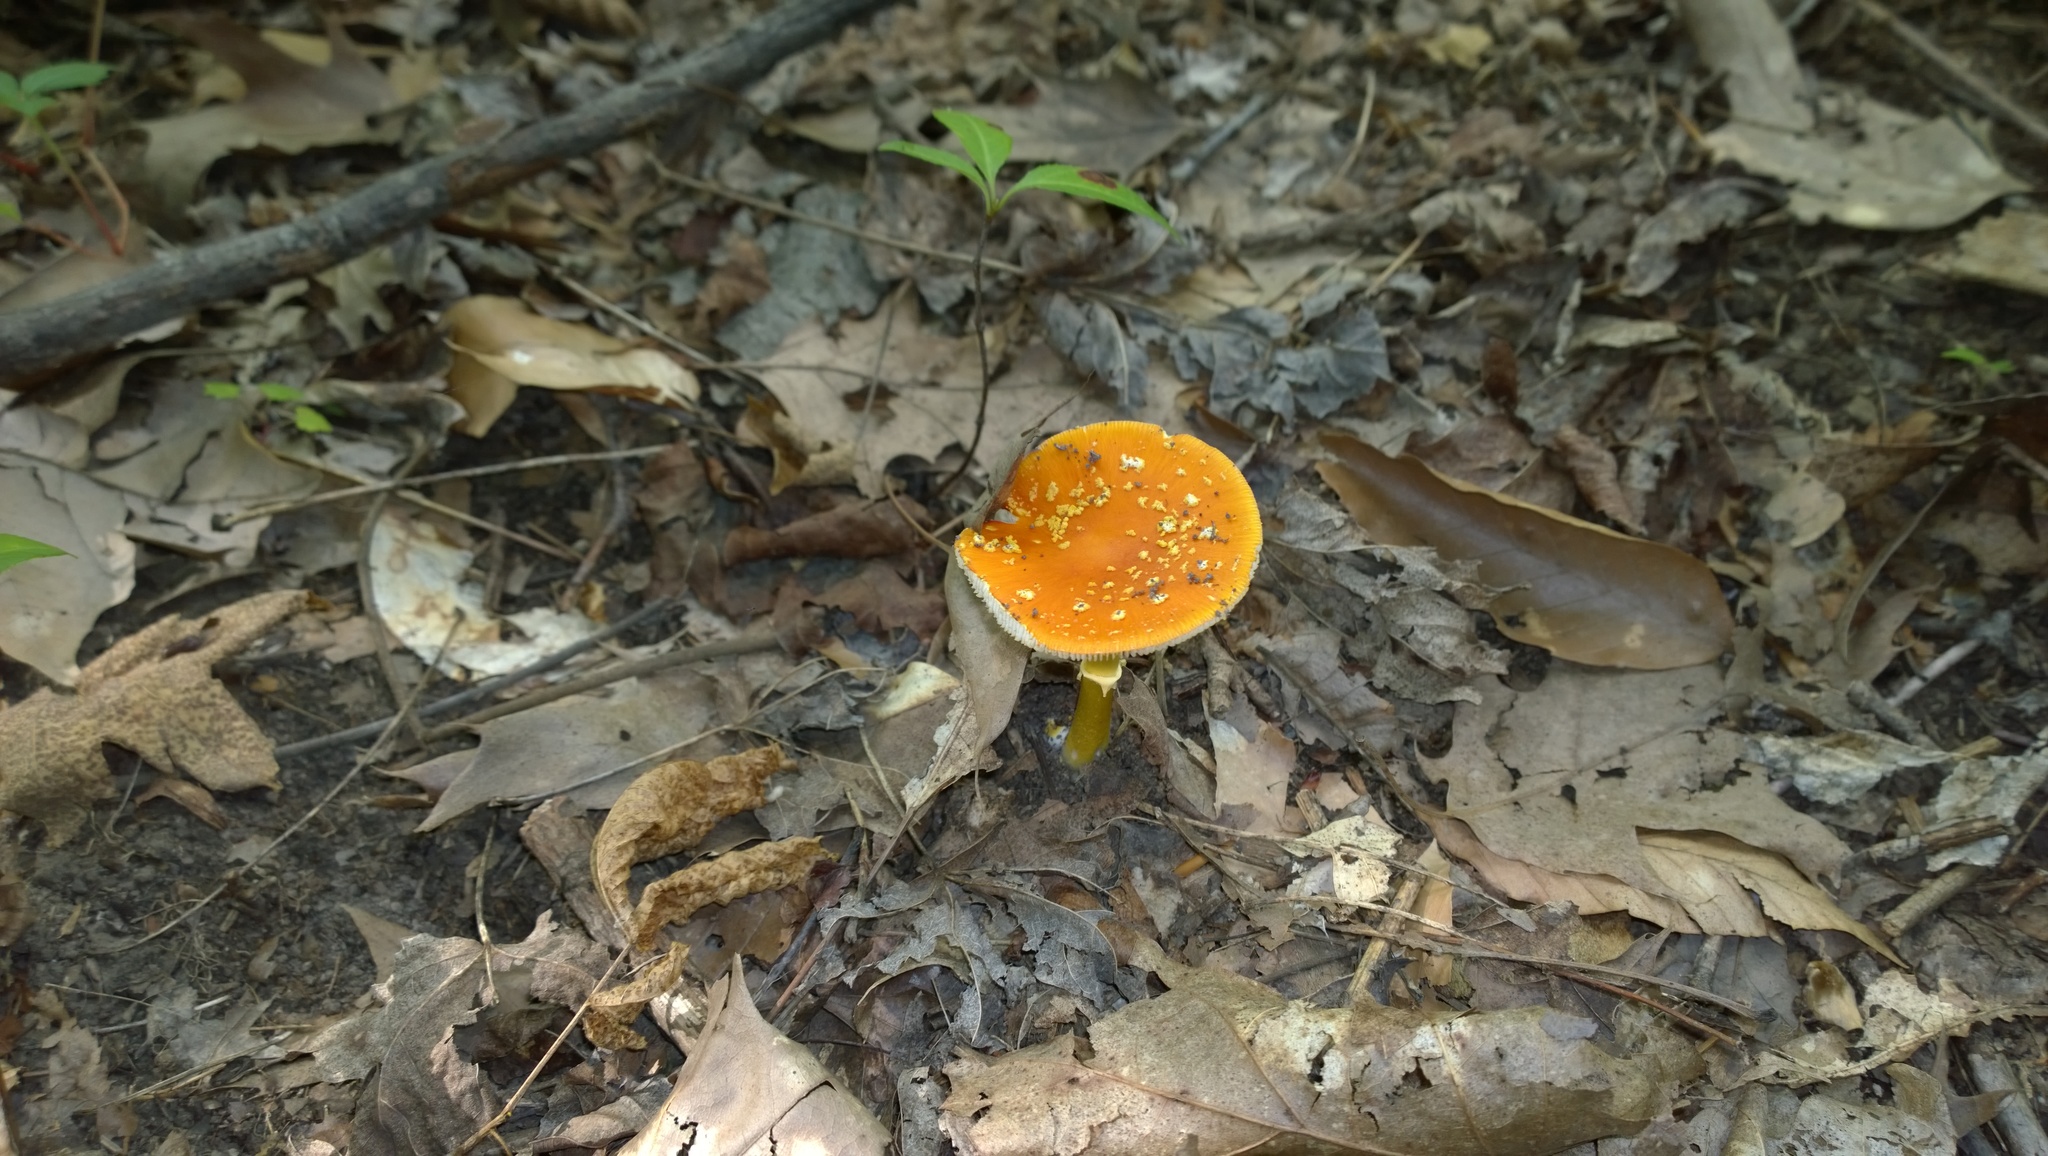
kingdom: Fungi
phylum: Basidiomycota
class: Agaricomycetes
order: Agaricales
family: Amanitaceae
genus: Amanita
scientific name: Amanita flavoconia
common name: Yellow patches
